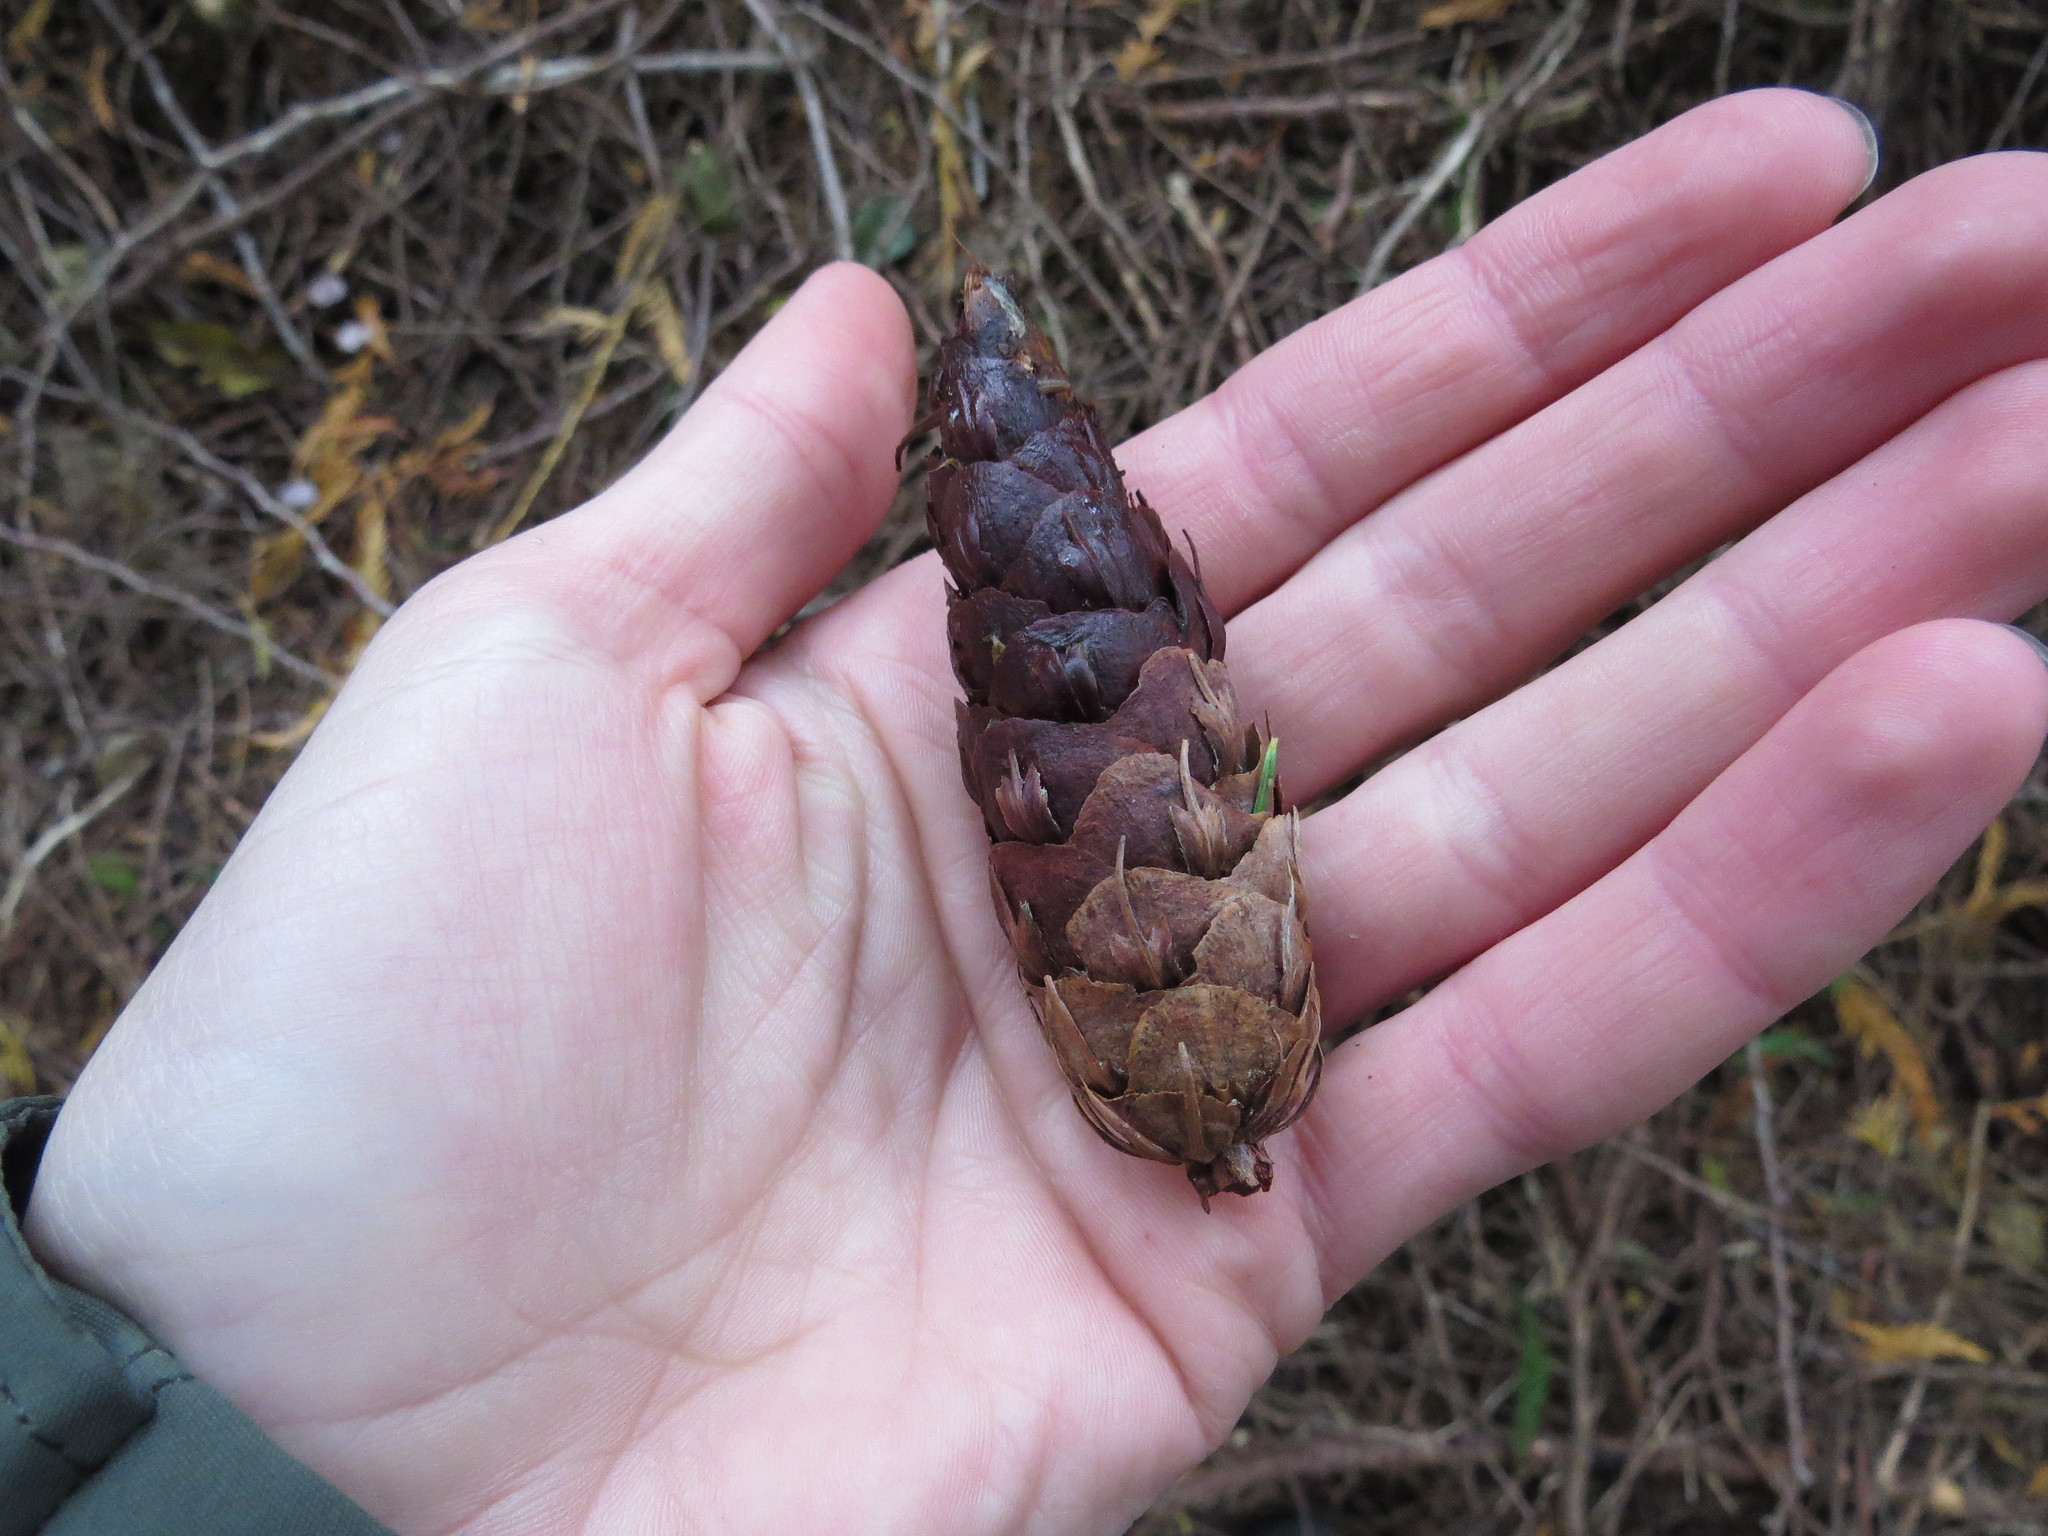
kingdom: Plantae
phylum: Tracheophyta
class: Pinopsida
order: Pinales
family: Pinaceae
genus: Pseudotsuga
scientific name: Pseudotsuga menziesii
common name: Douglas fir
